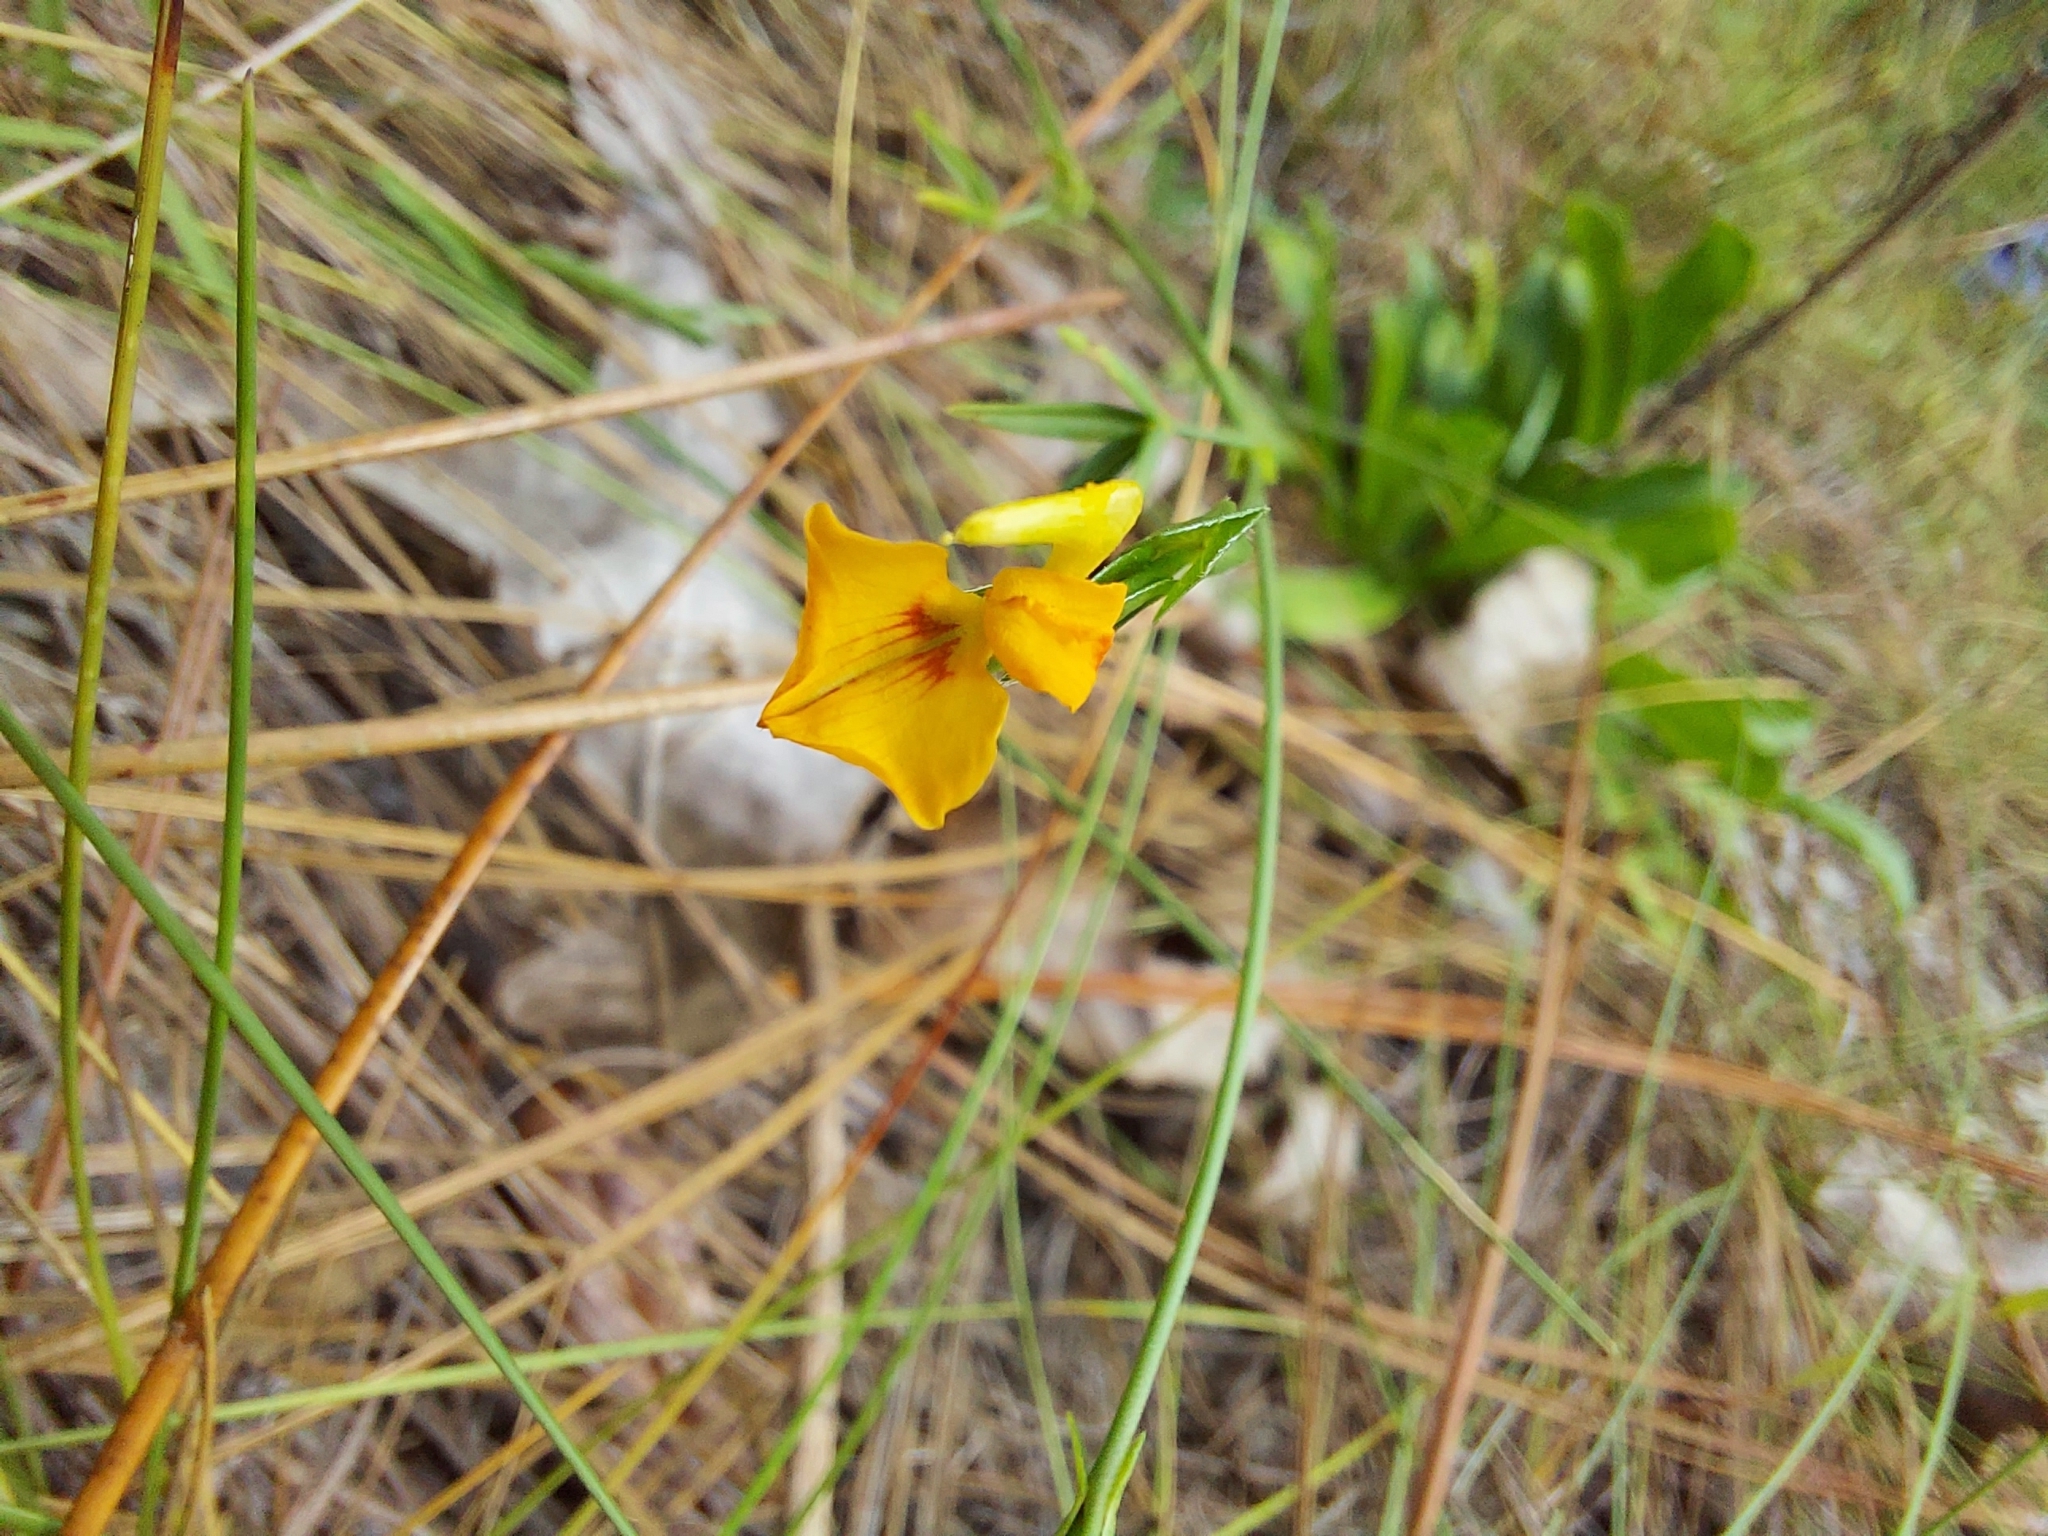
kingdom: Plantae
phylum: Tracheophyta
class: Magnoliopsida
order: Fabales
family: Fabaceae
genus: Zornia
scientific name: Zornia bracteata
